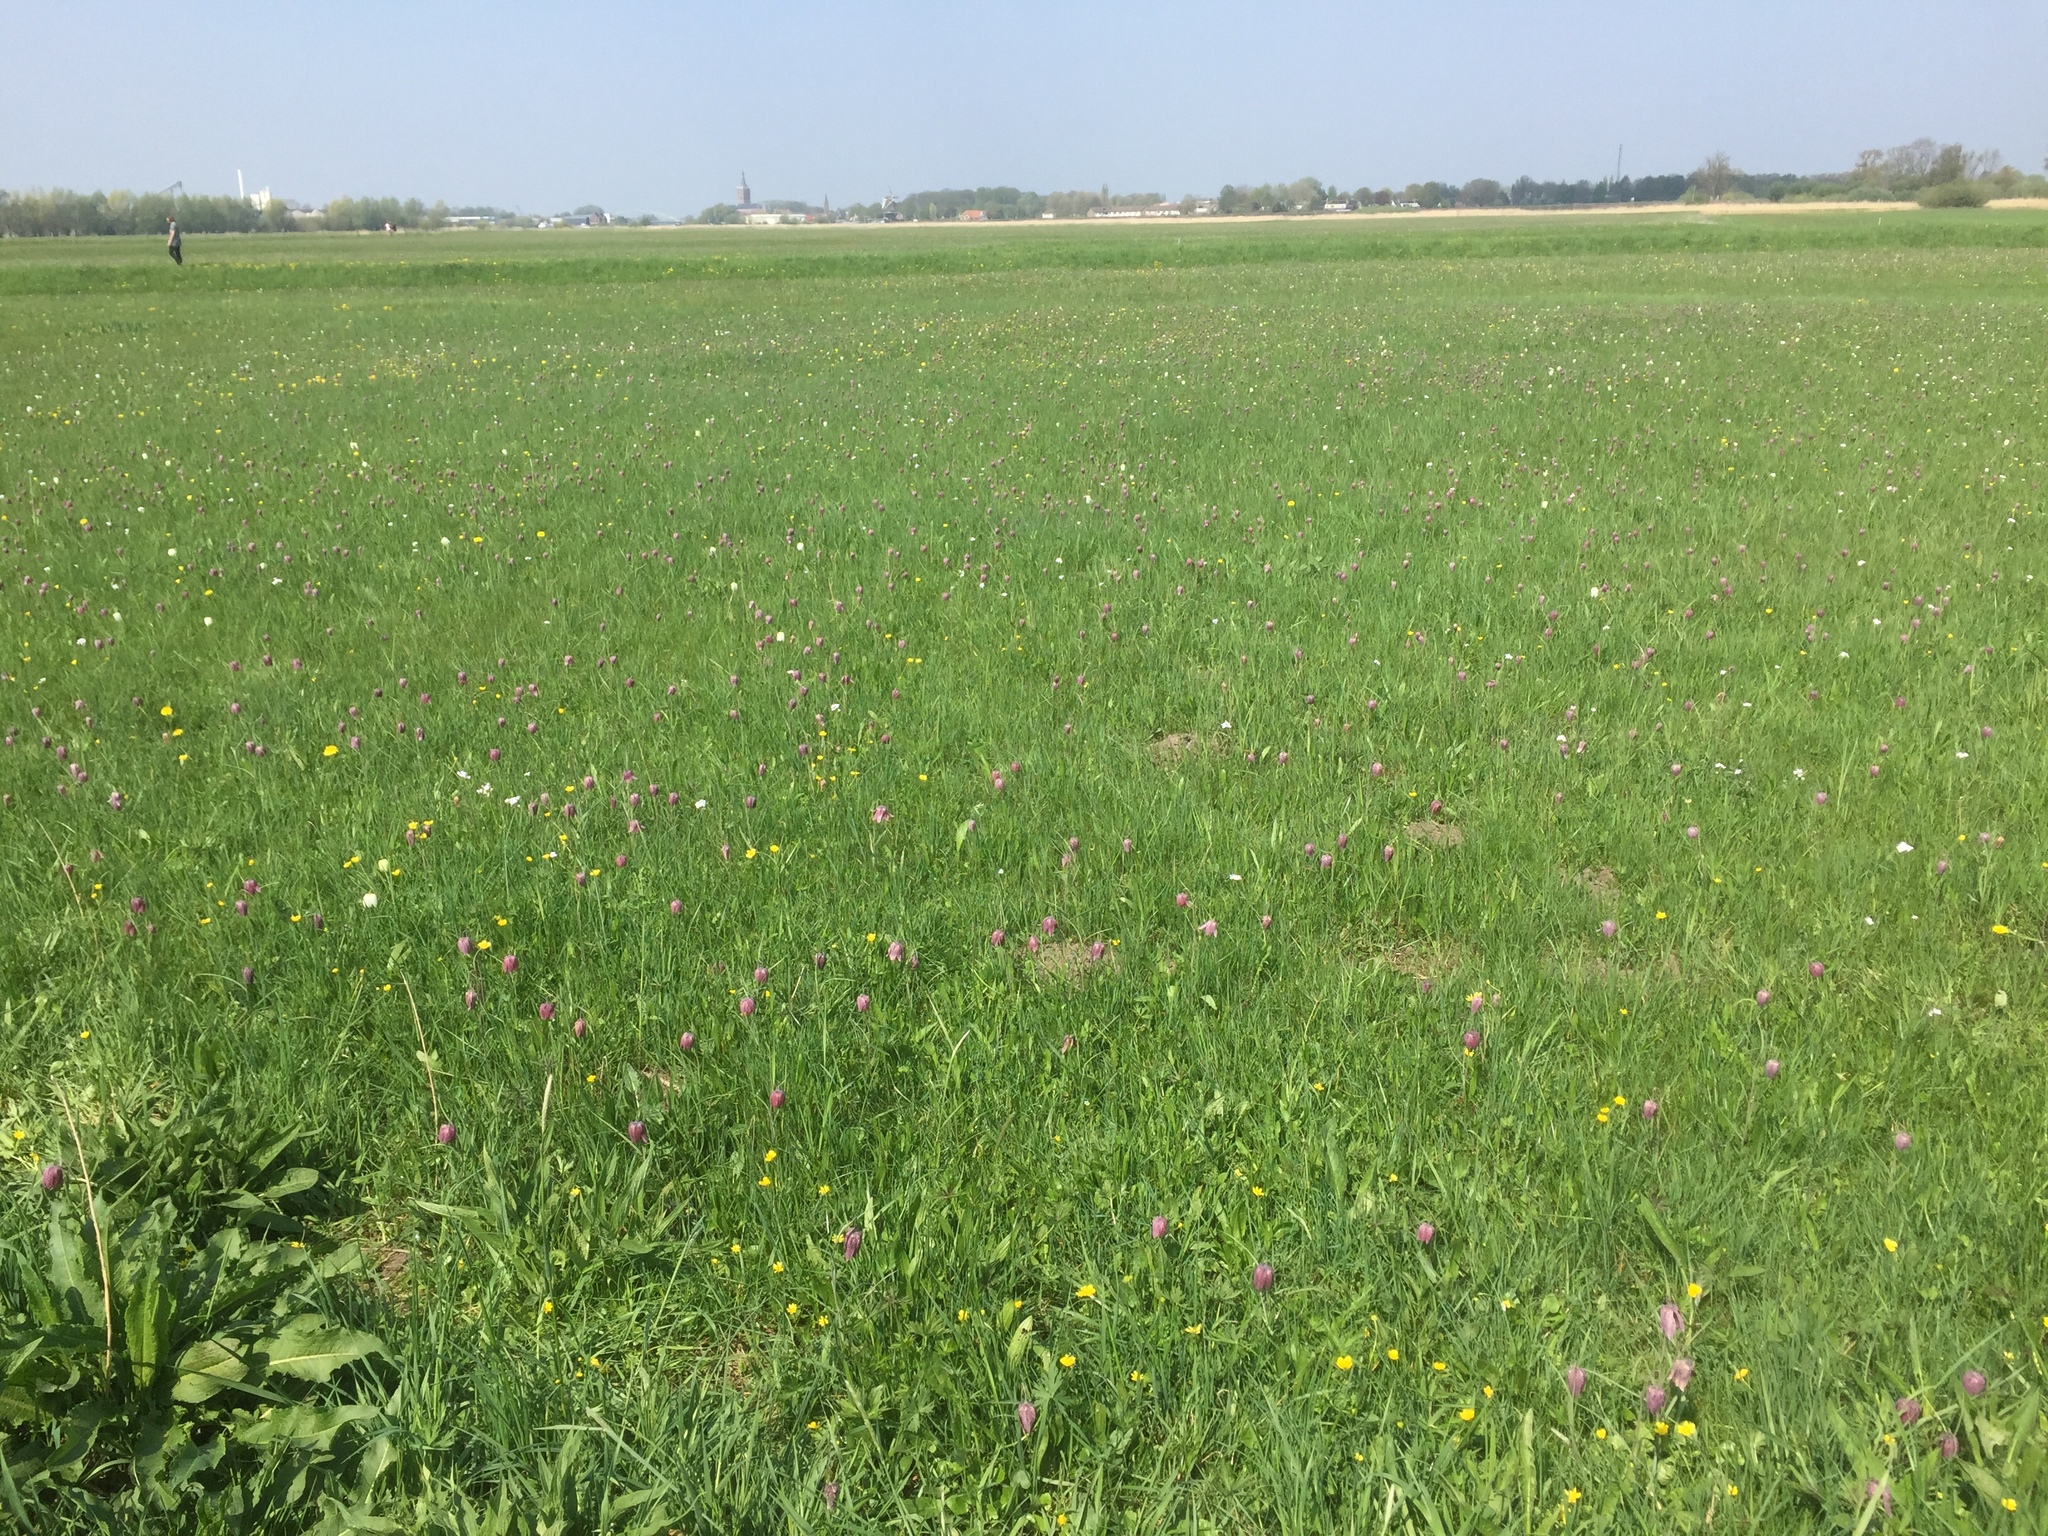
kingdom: Plantae
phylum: Tracheophyta
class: Liliopsida
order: Liliales
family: Liliaceae
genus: Fritillaria
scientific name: Fritillaria meleagris
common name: Fritillary
